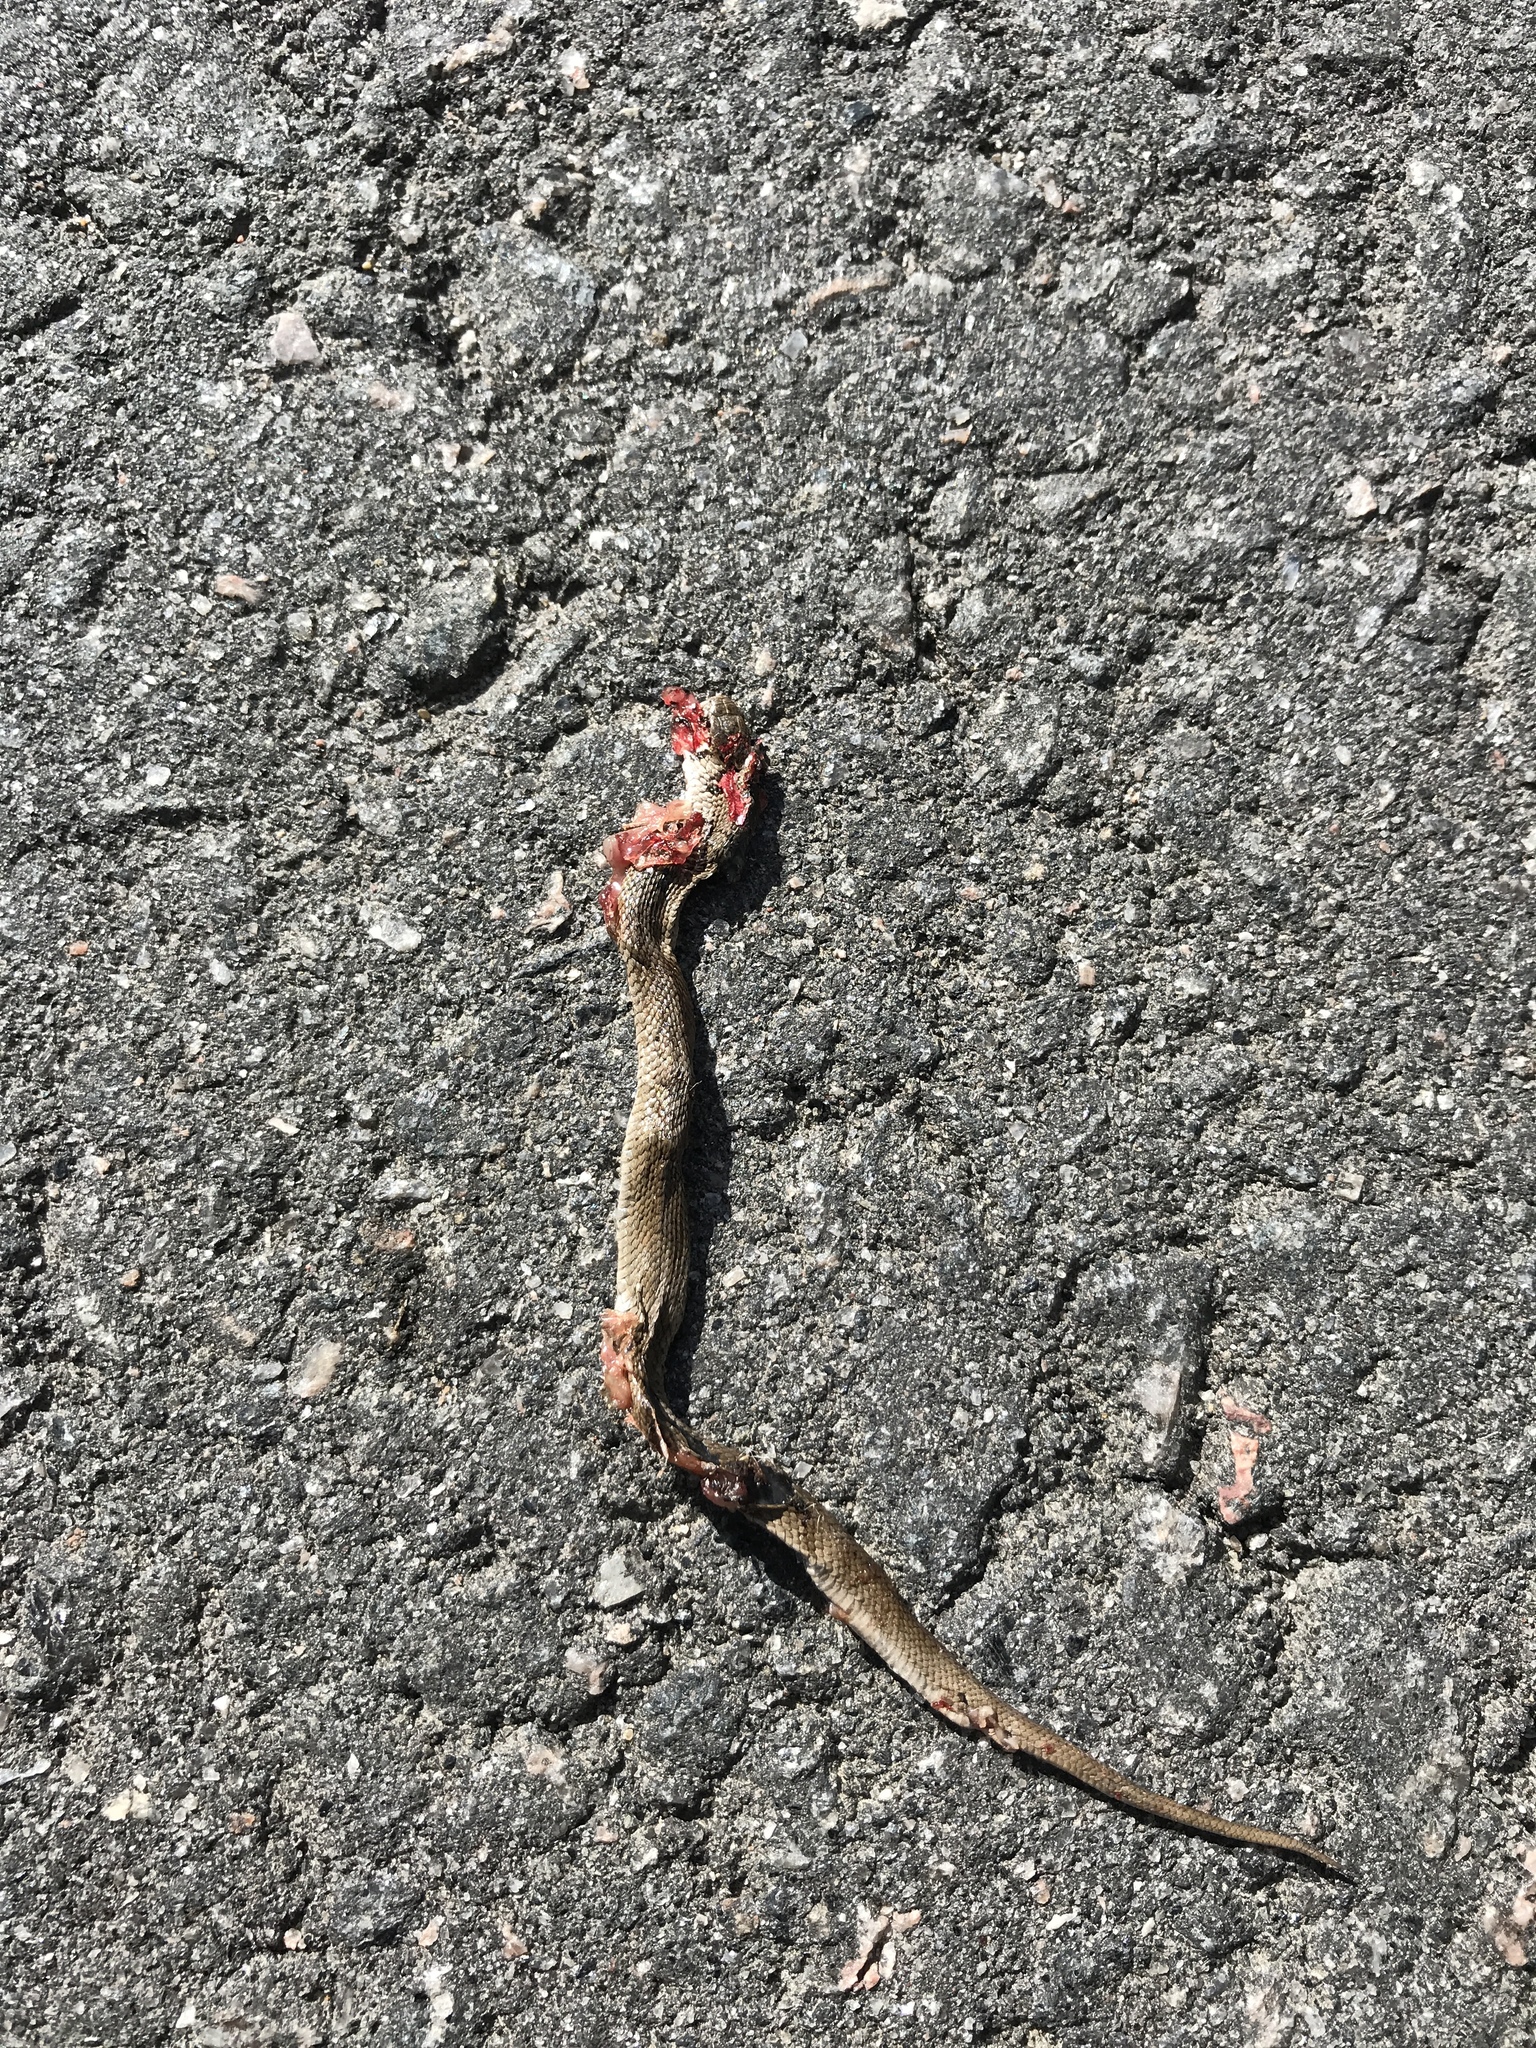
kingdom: Animalia
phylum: Chordata
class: Squamata
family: Colubridae
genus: Storeria
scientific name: Storeria dekayi
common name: (dekay’s) brown snake
